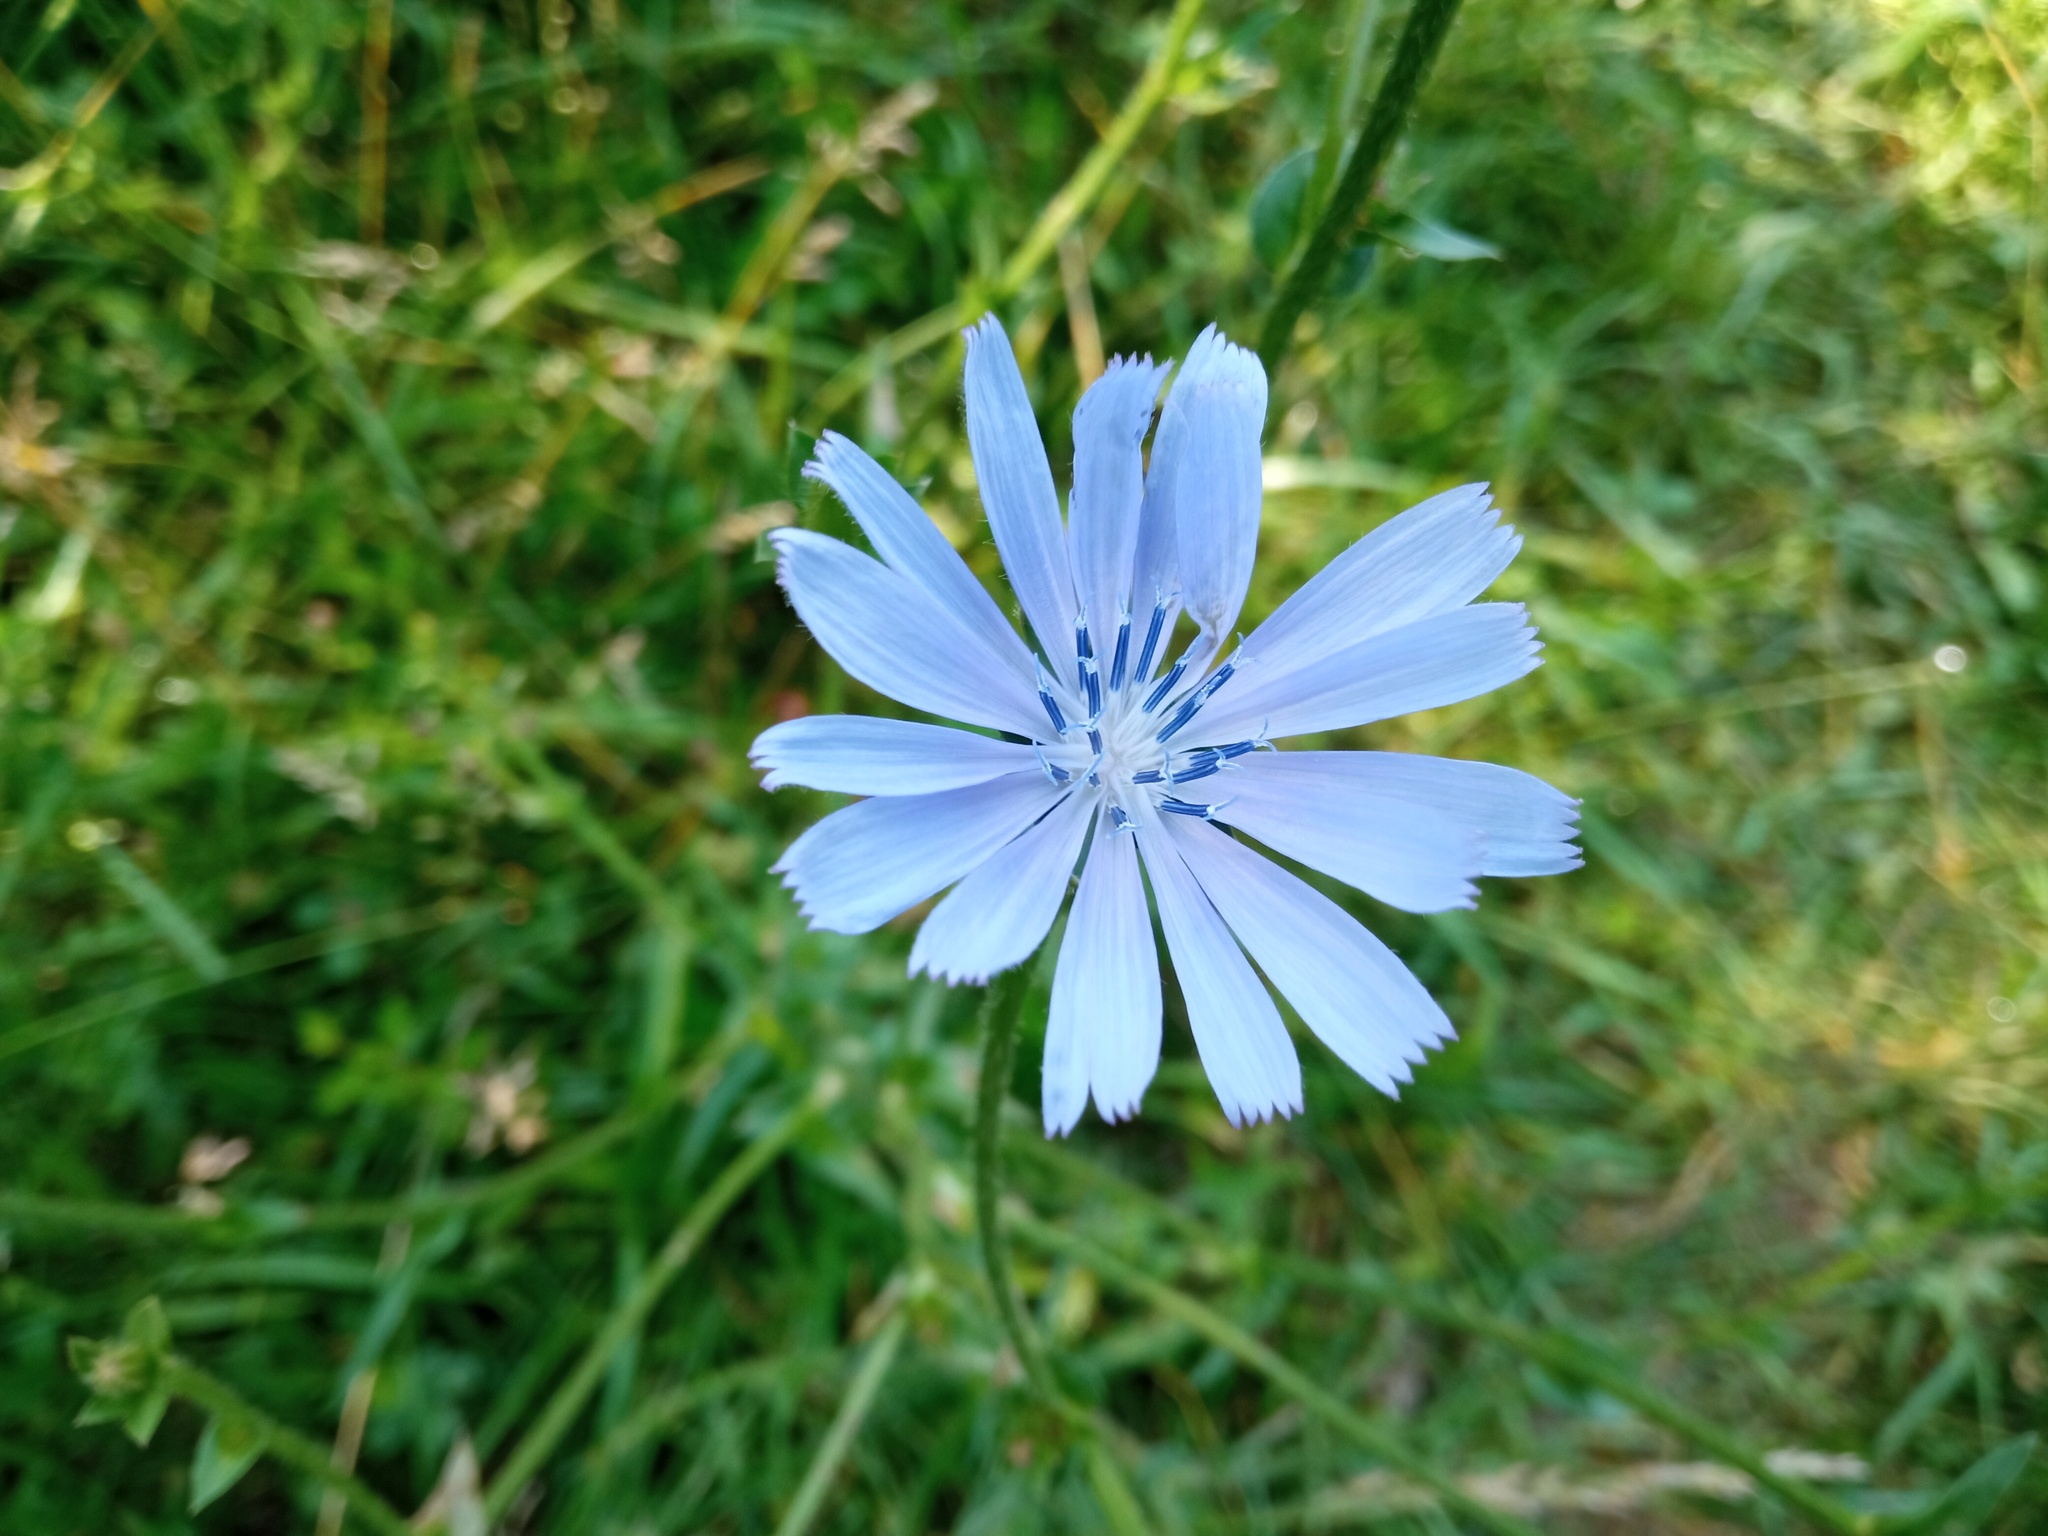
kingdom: Plantae
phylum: Tracheophyta
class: Magnoliopsida
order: Asterales
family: Asteraceae
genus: Cichorium
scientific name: Cichorium intybus
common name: Chicory
